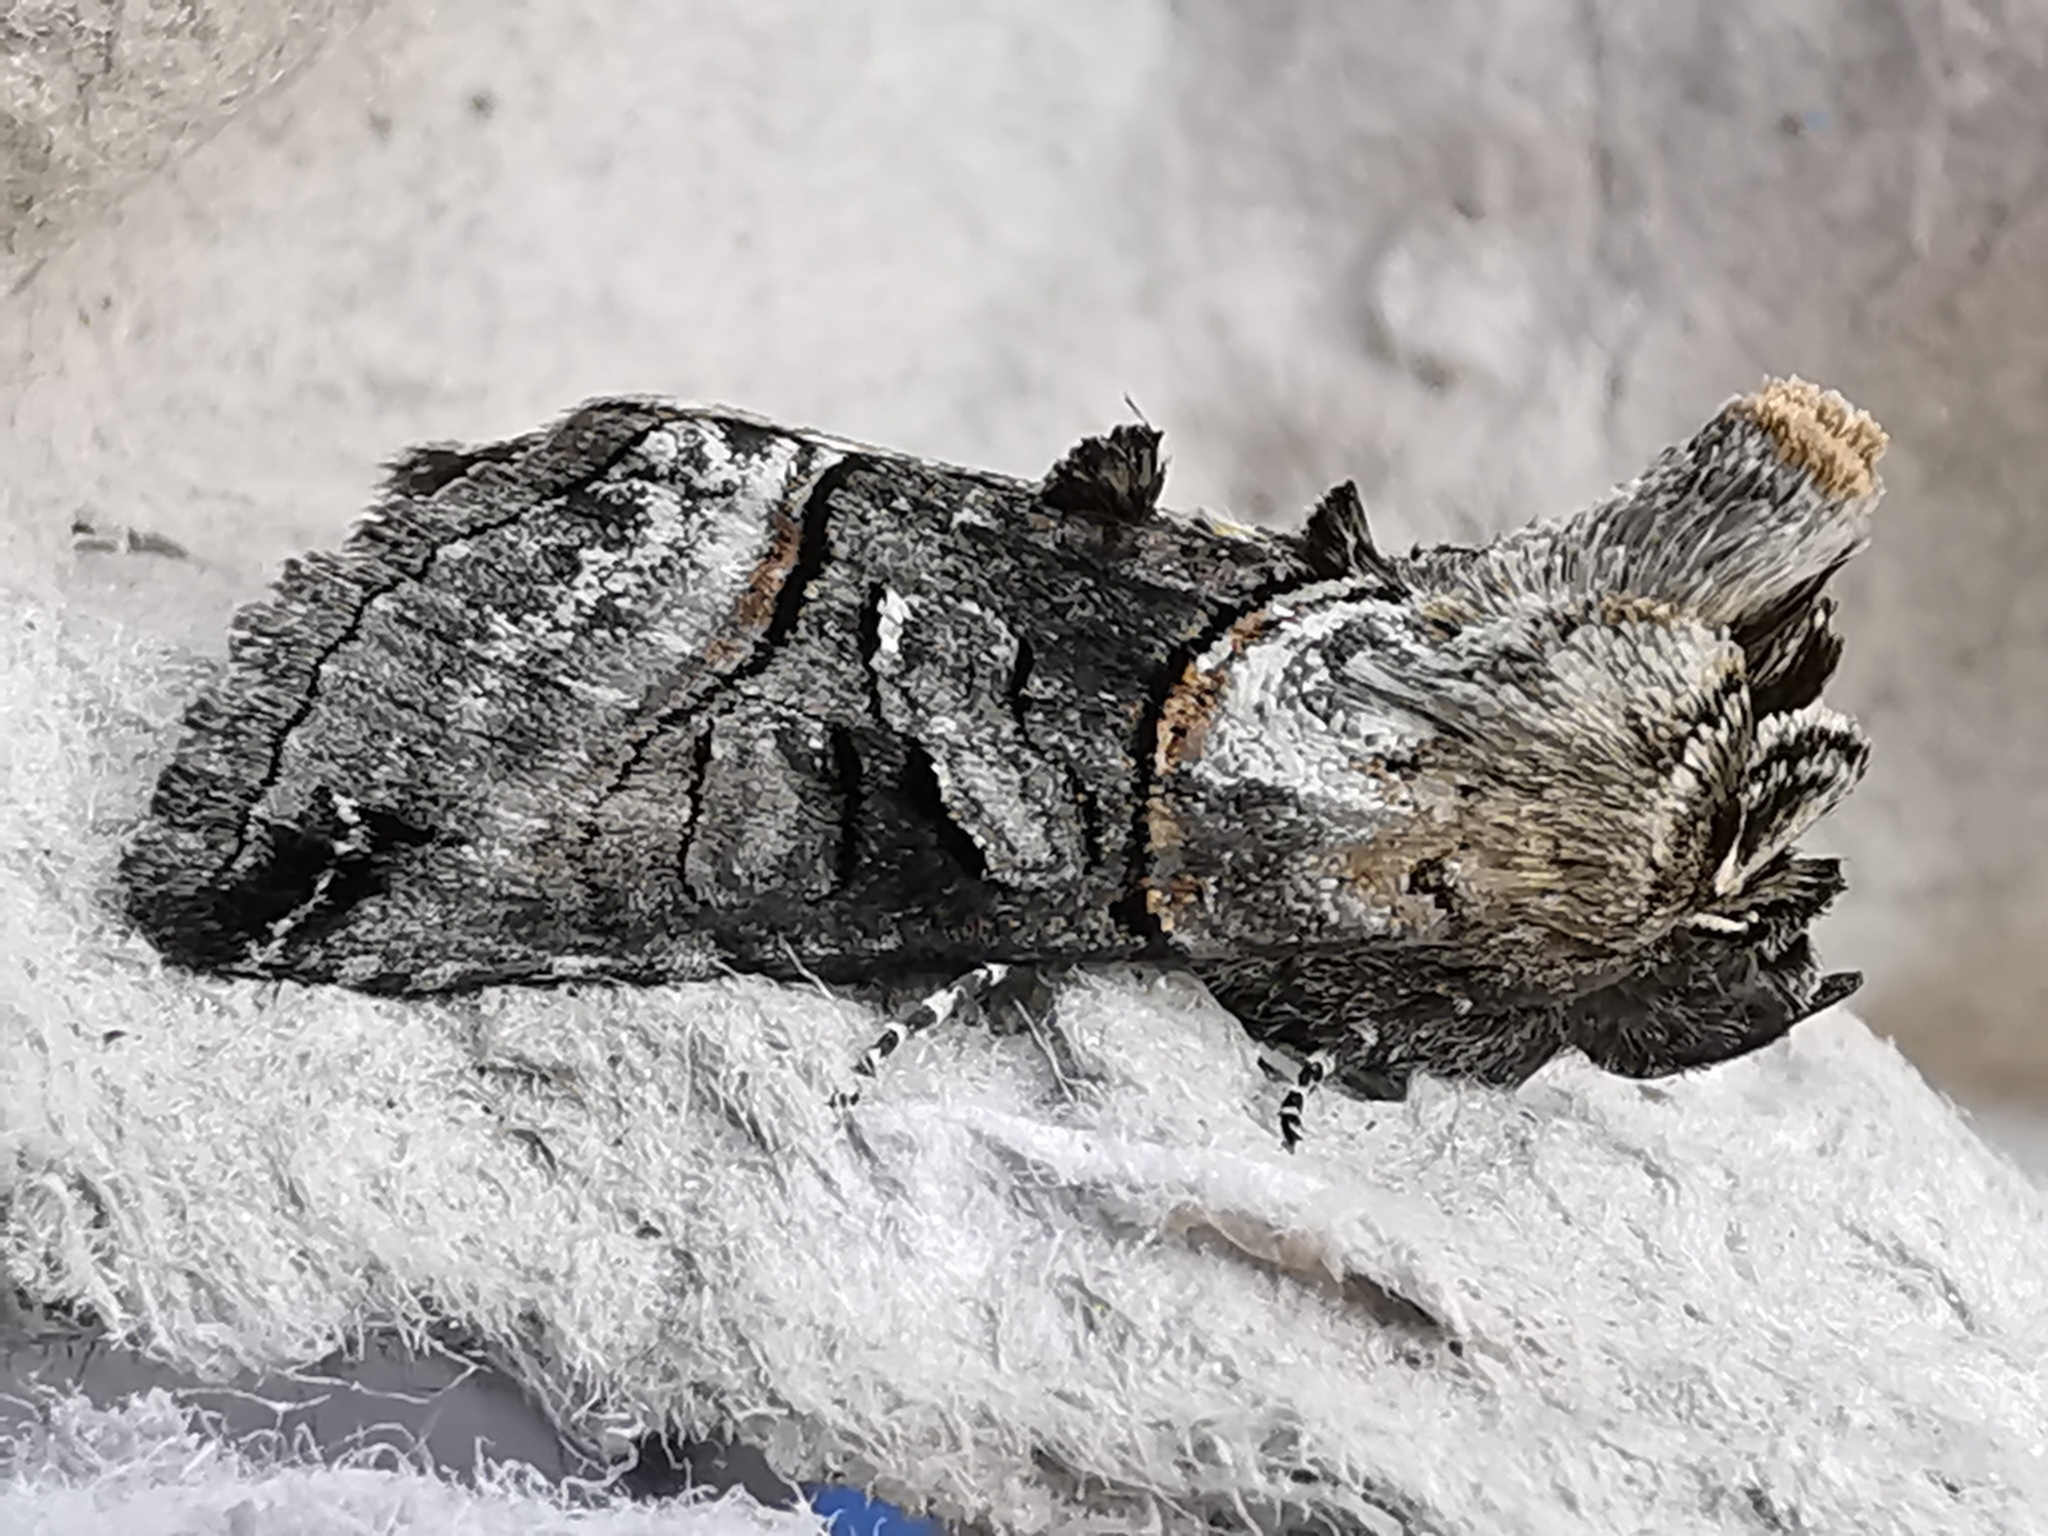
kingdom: Animalia
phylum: Arthropoda
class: Insecta
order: Lepidoptera
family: Noctuidae
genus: Abrostola
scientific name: Abrostola tripartita
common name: Spectacle
